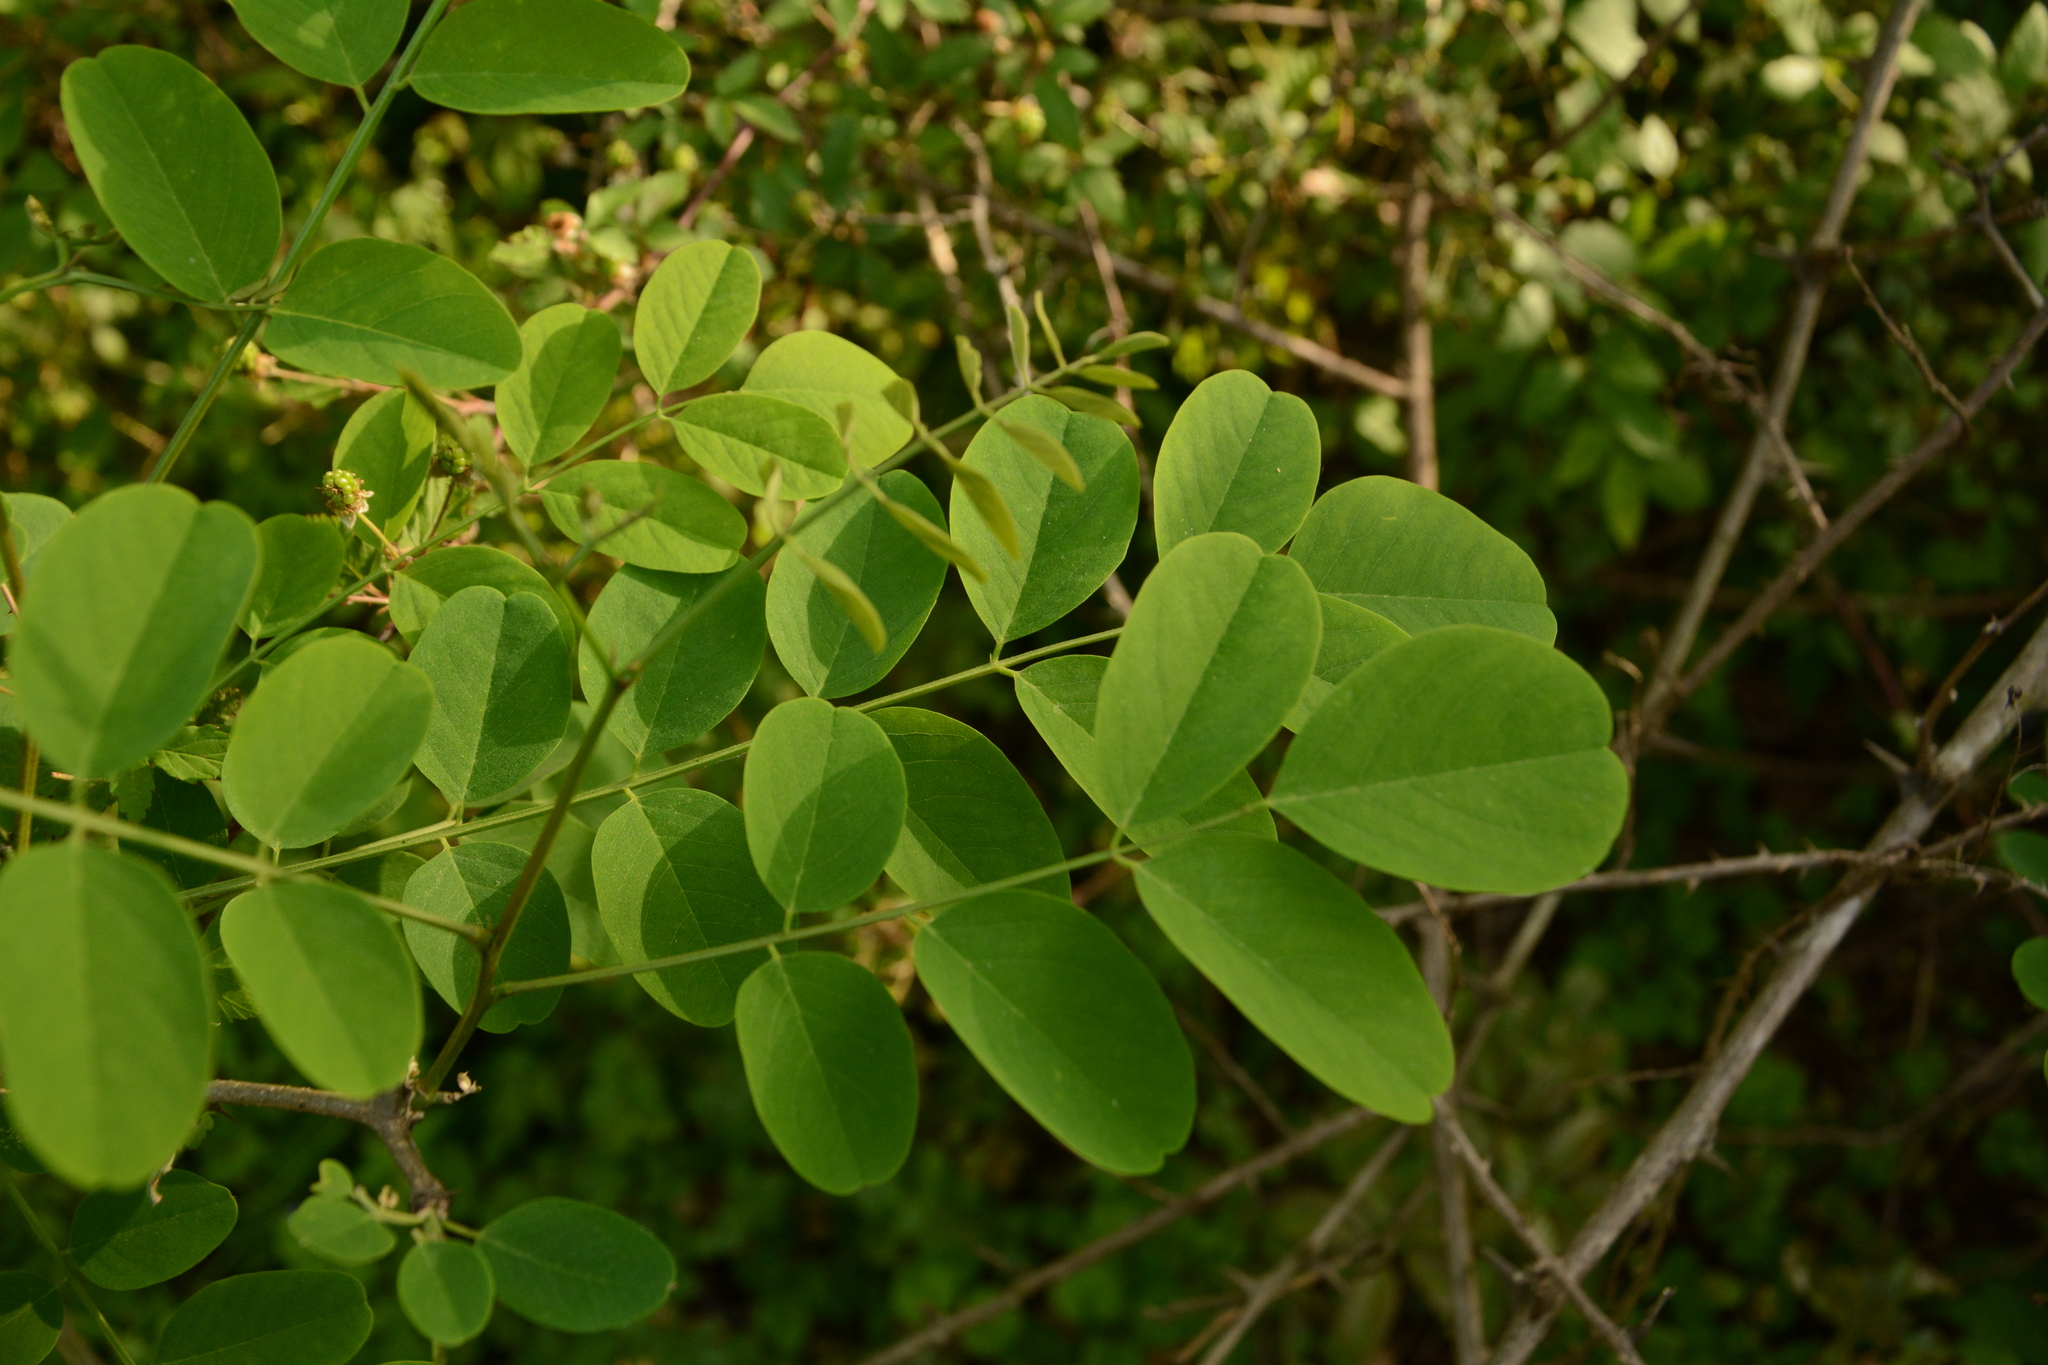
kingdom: Plantae
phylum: Tracheophyta
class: Magnoliopsida
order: Fabales
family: Fabaceae
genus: Robinia
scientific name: Robinia pseudoacacia
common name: Black locust
